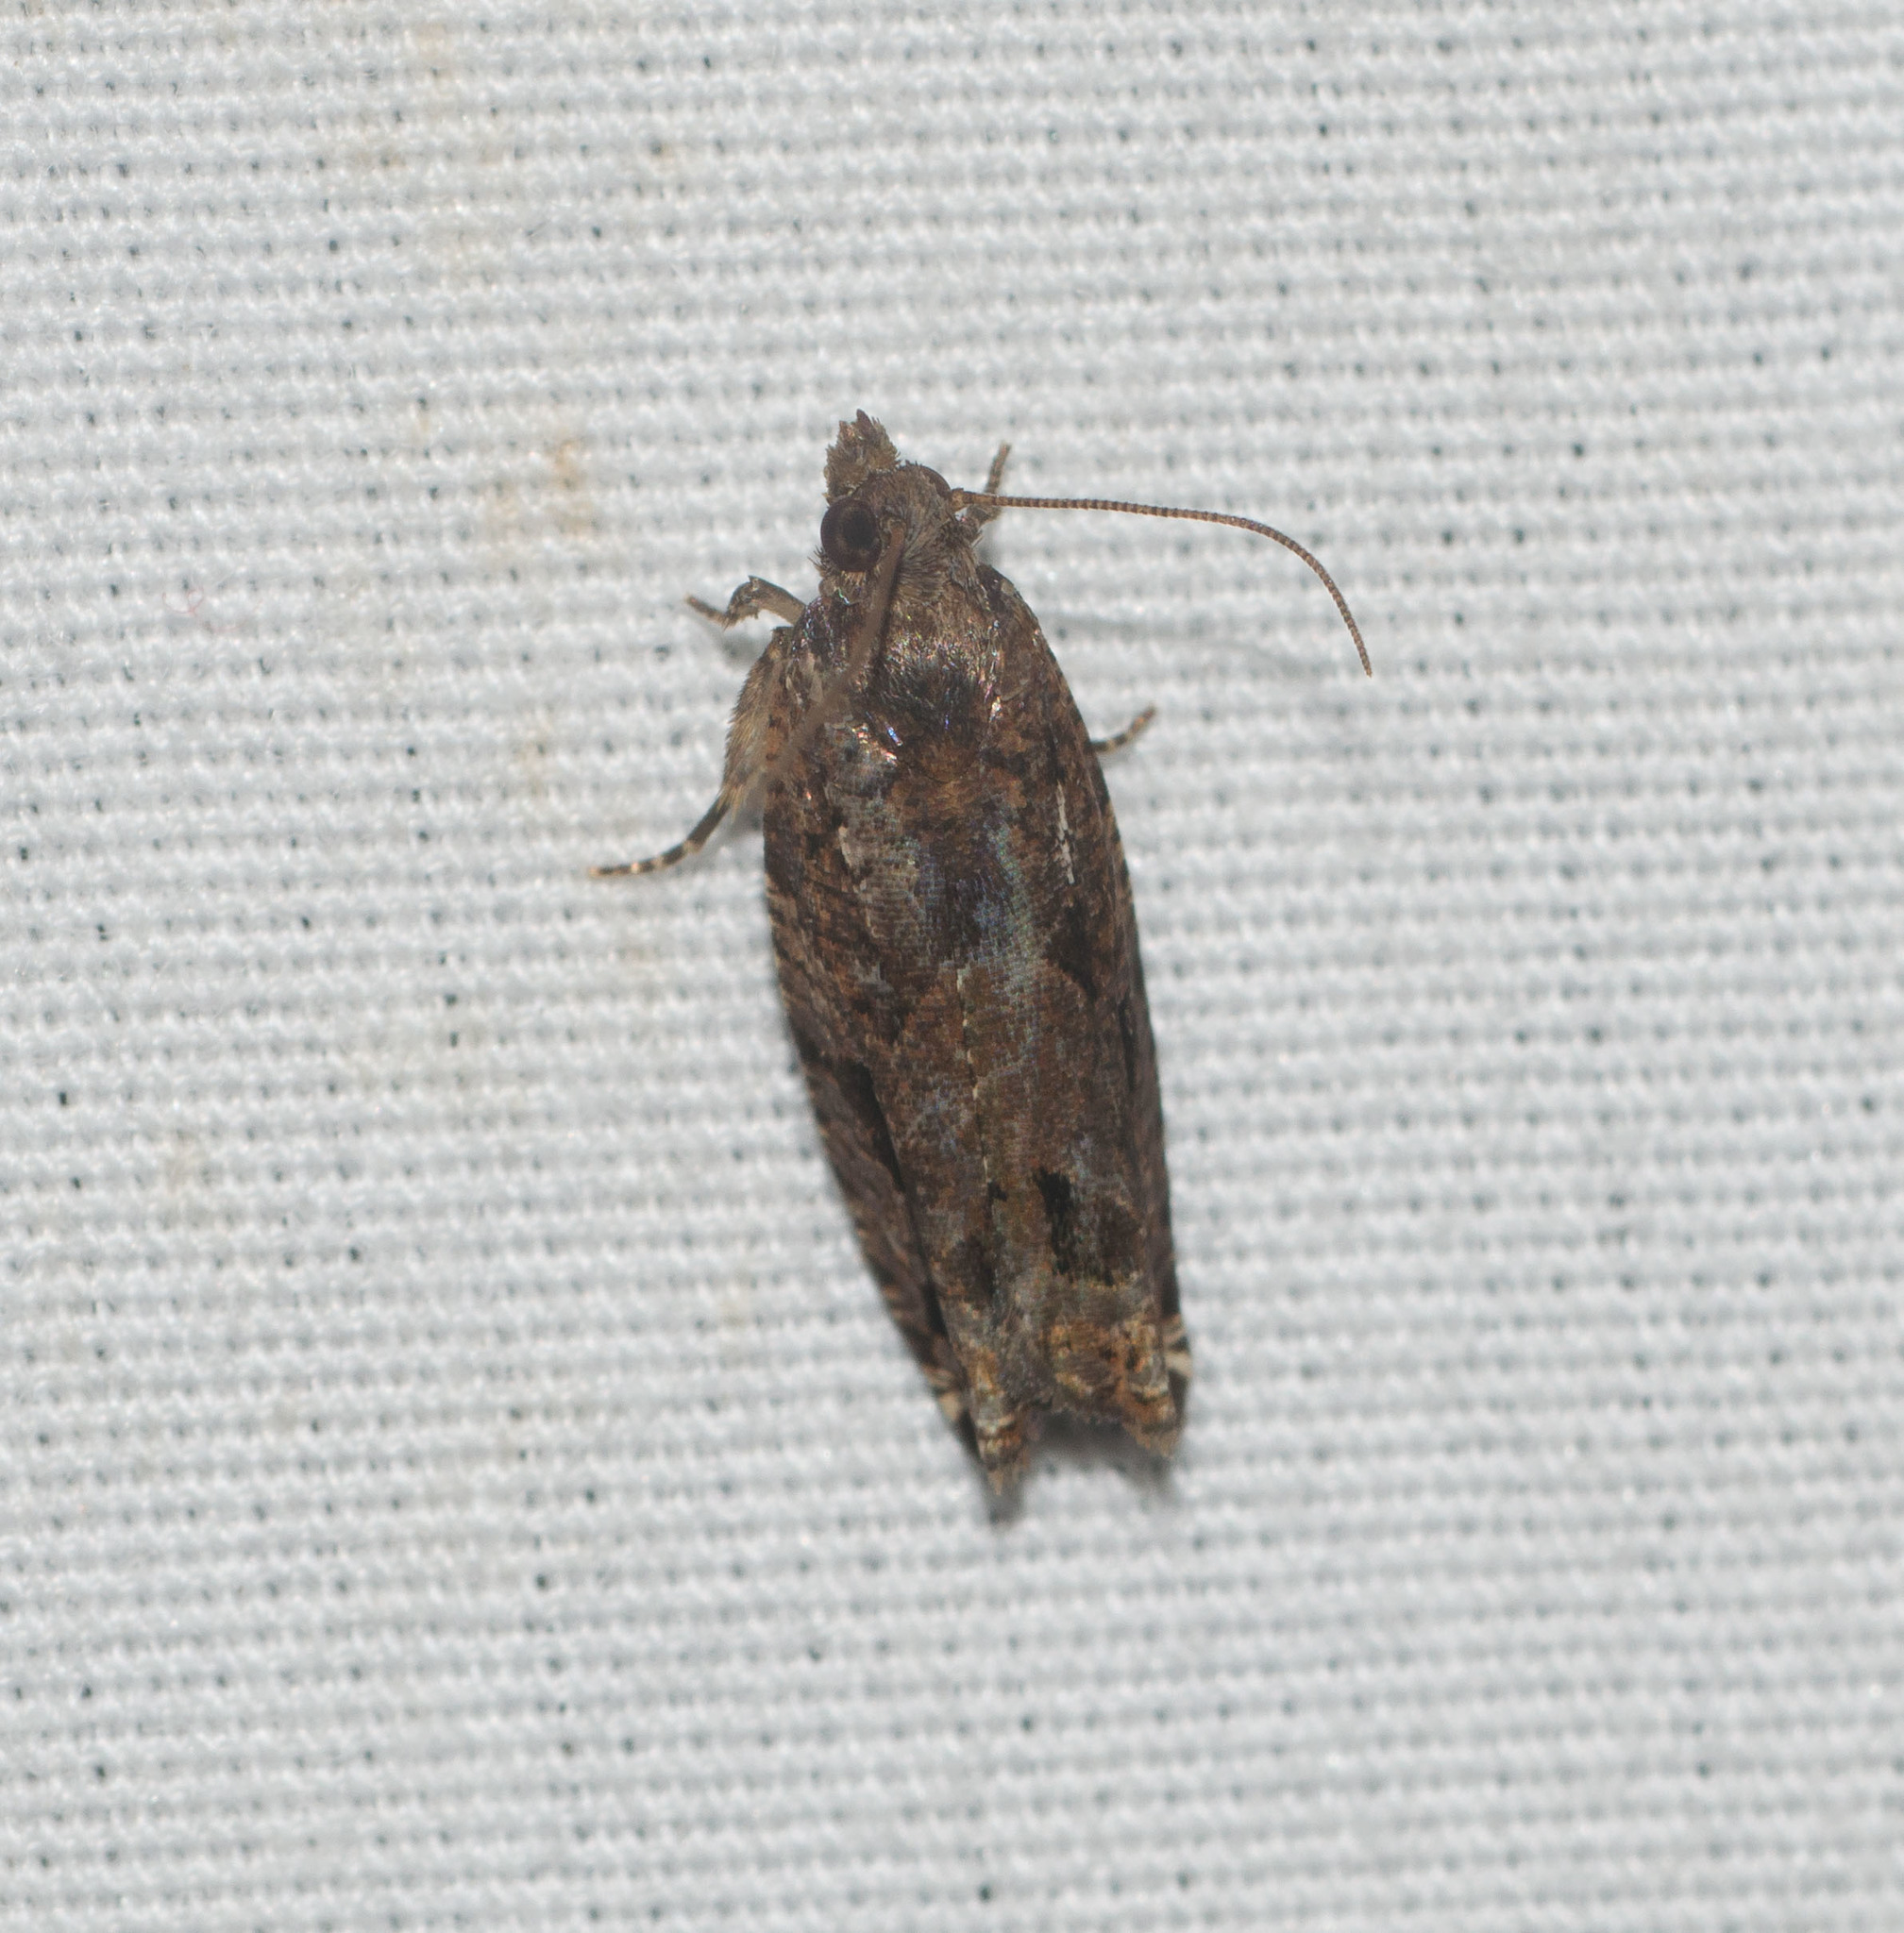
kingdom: Animalia
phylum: Arthropoda
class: Insecta
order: Lepidoptera
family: Tortricidae
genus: Crocidosema
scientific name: Crocidosema marcidellum
